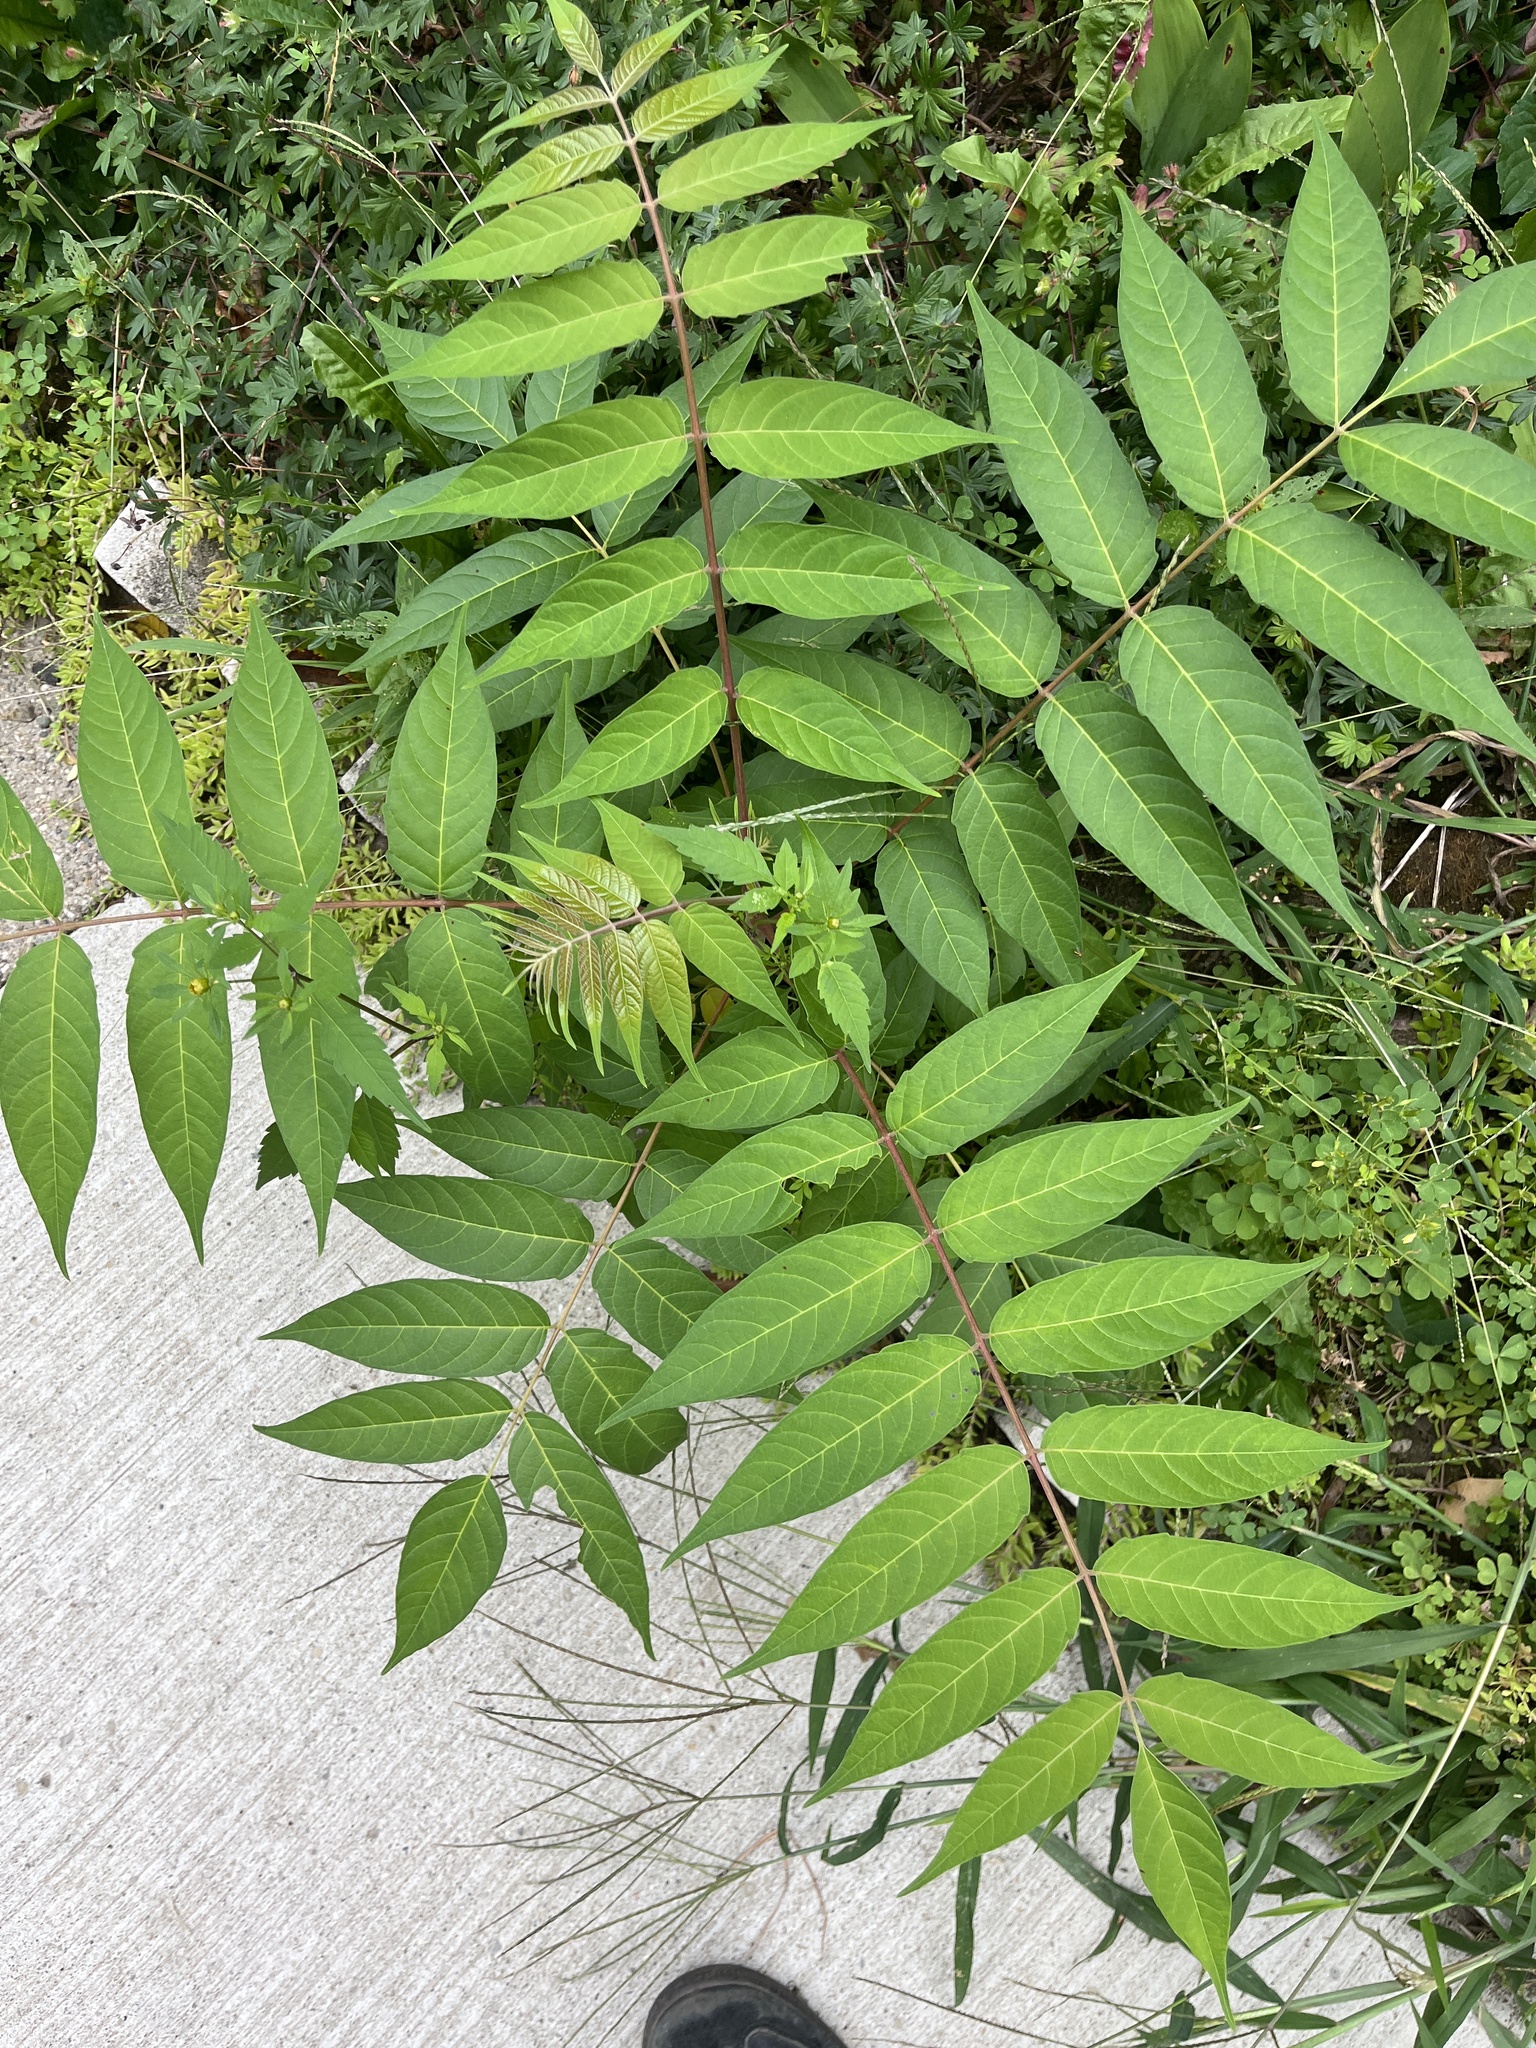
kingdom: Plantae
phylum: Tracheophyta
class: Magnoliopsida
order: Sapindales
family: Simaroubaceae
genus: Ailanthus
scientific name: Ailanthus altissima
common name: Tree-of-heaven
